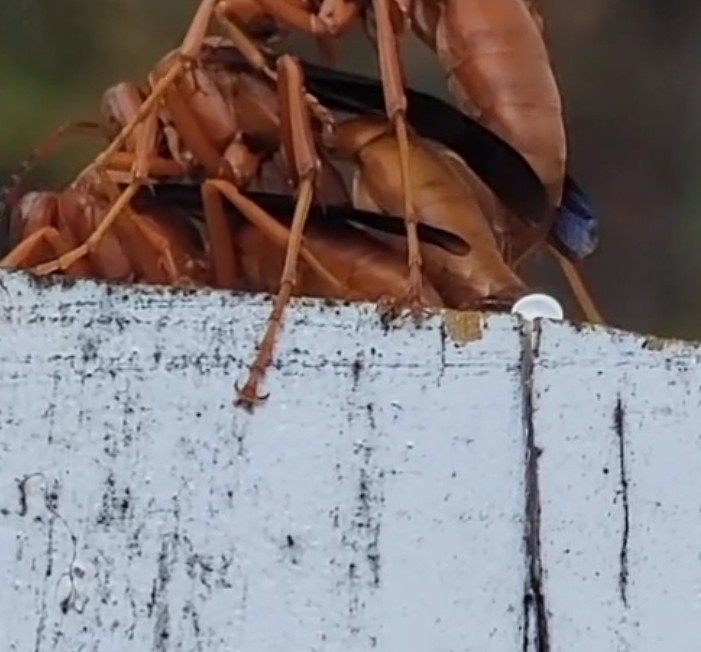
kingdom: Animalia
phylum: Arthropoda
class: Insecta
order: Hymenoptera
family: Eumenidae
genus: Polistes
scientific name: Polistes carolina
